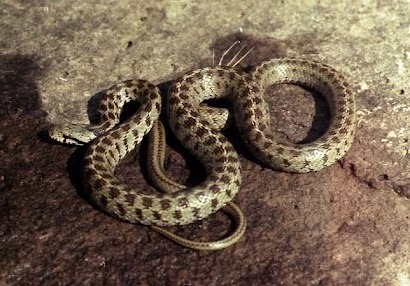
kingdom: Animalia
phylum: Chordata
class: Squamata
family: Colubridae
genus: Zamenis
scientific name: Zamenis hohenackeri
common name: Transcaucasian rat snake
